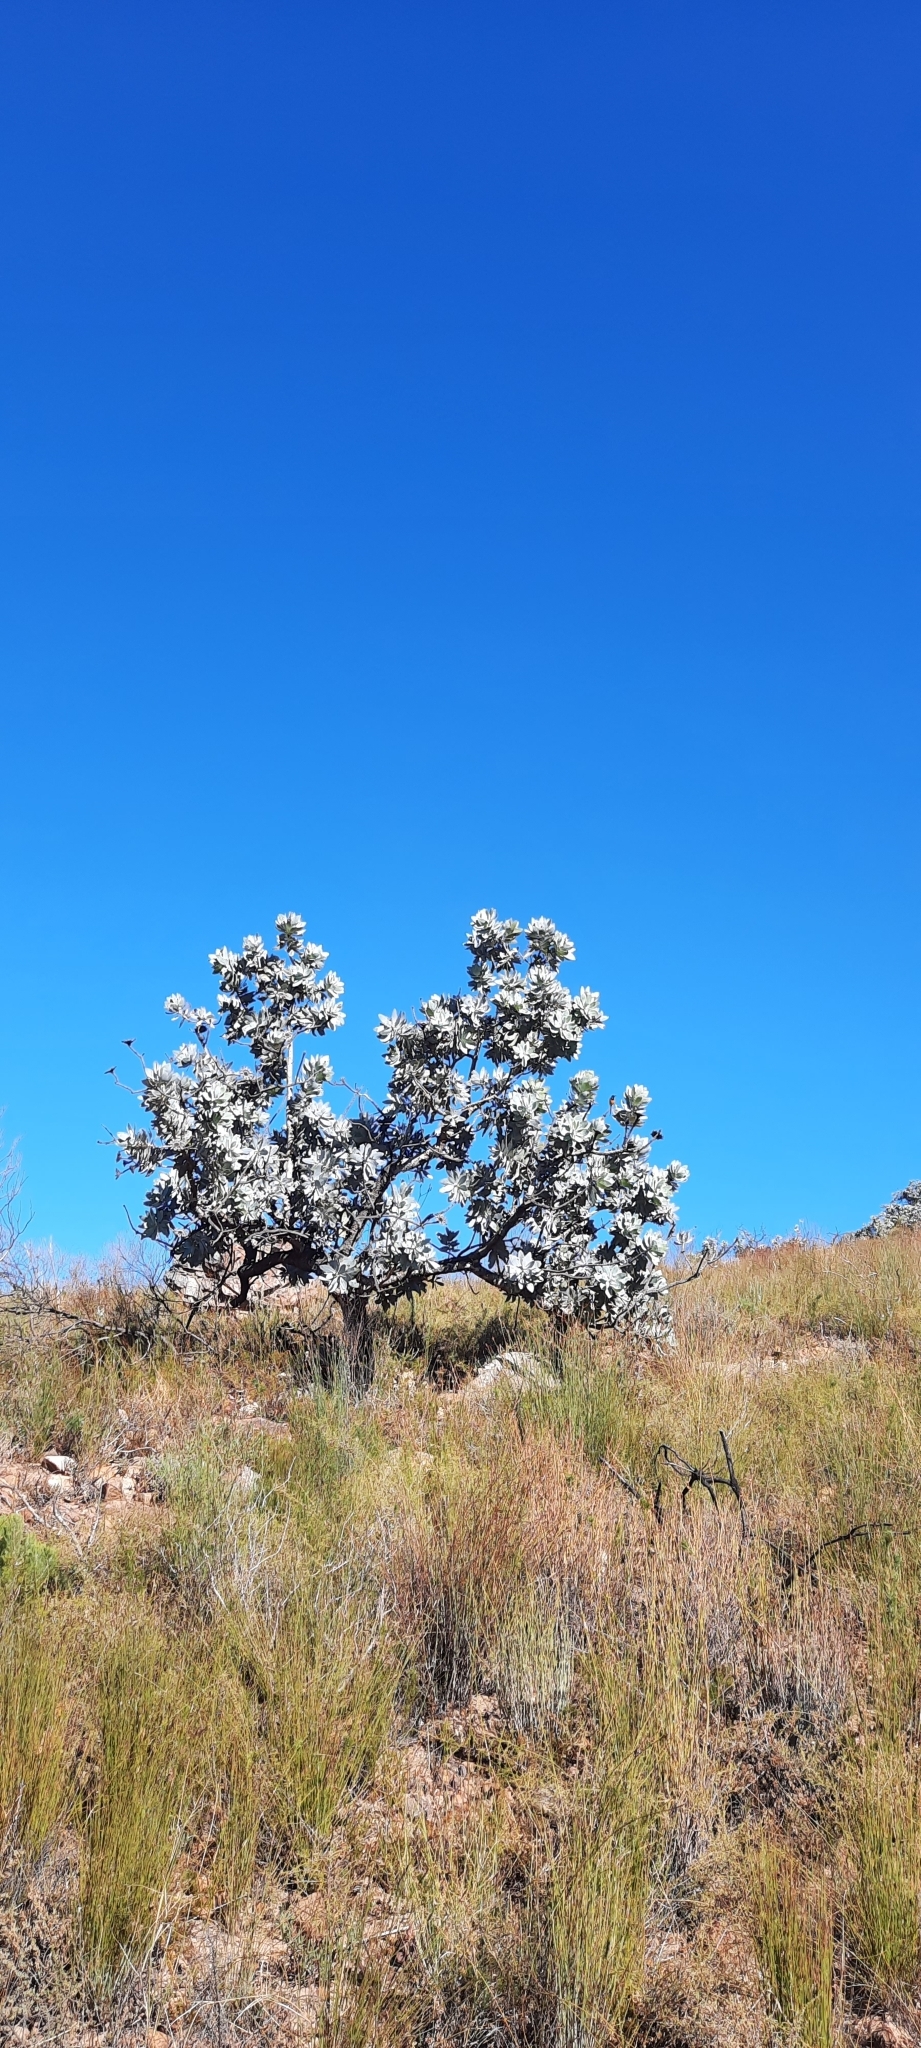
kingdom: Plantae
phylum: Tracheophyta
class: Magnoliopsida
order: Proteales
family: Proteaceae
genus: Protea
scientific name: Protea nitida
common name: Tree protea
